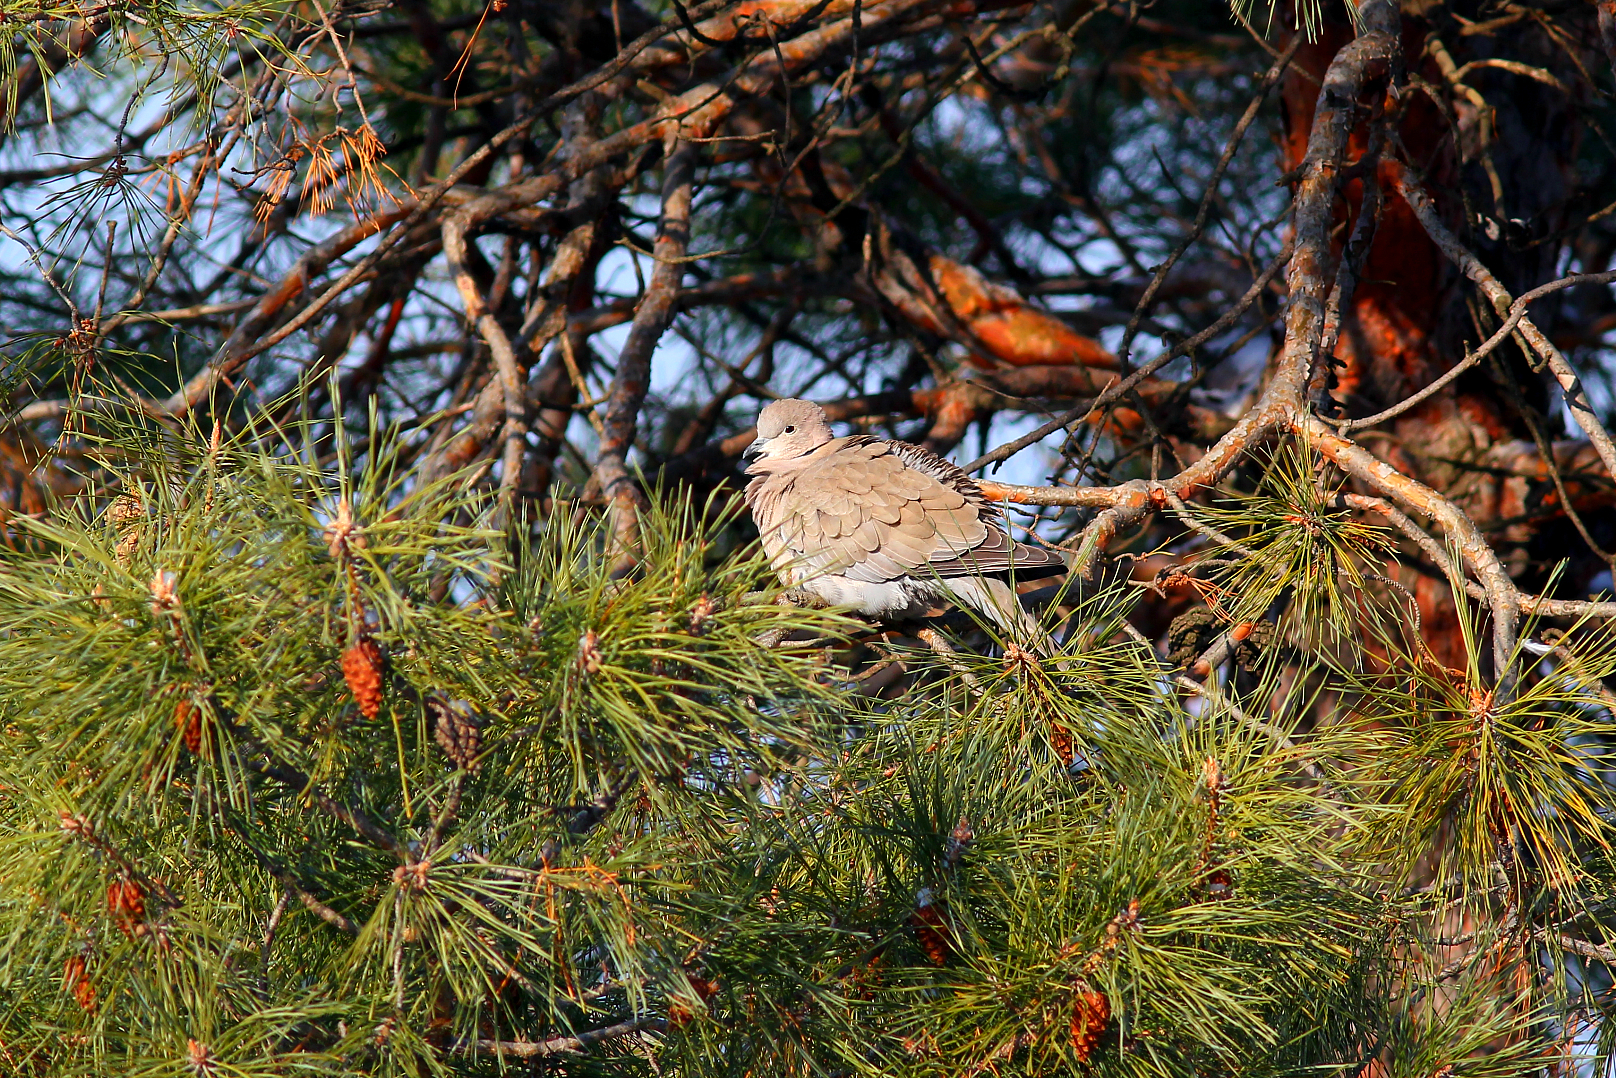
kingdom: Animalia
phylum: Chordata
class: Aves
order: Columbiformes
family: Columbidae
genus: Streptopelia
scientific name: Streptopelia decaocto
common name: Eurasian collared dove
